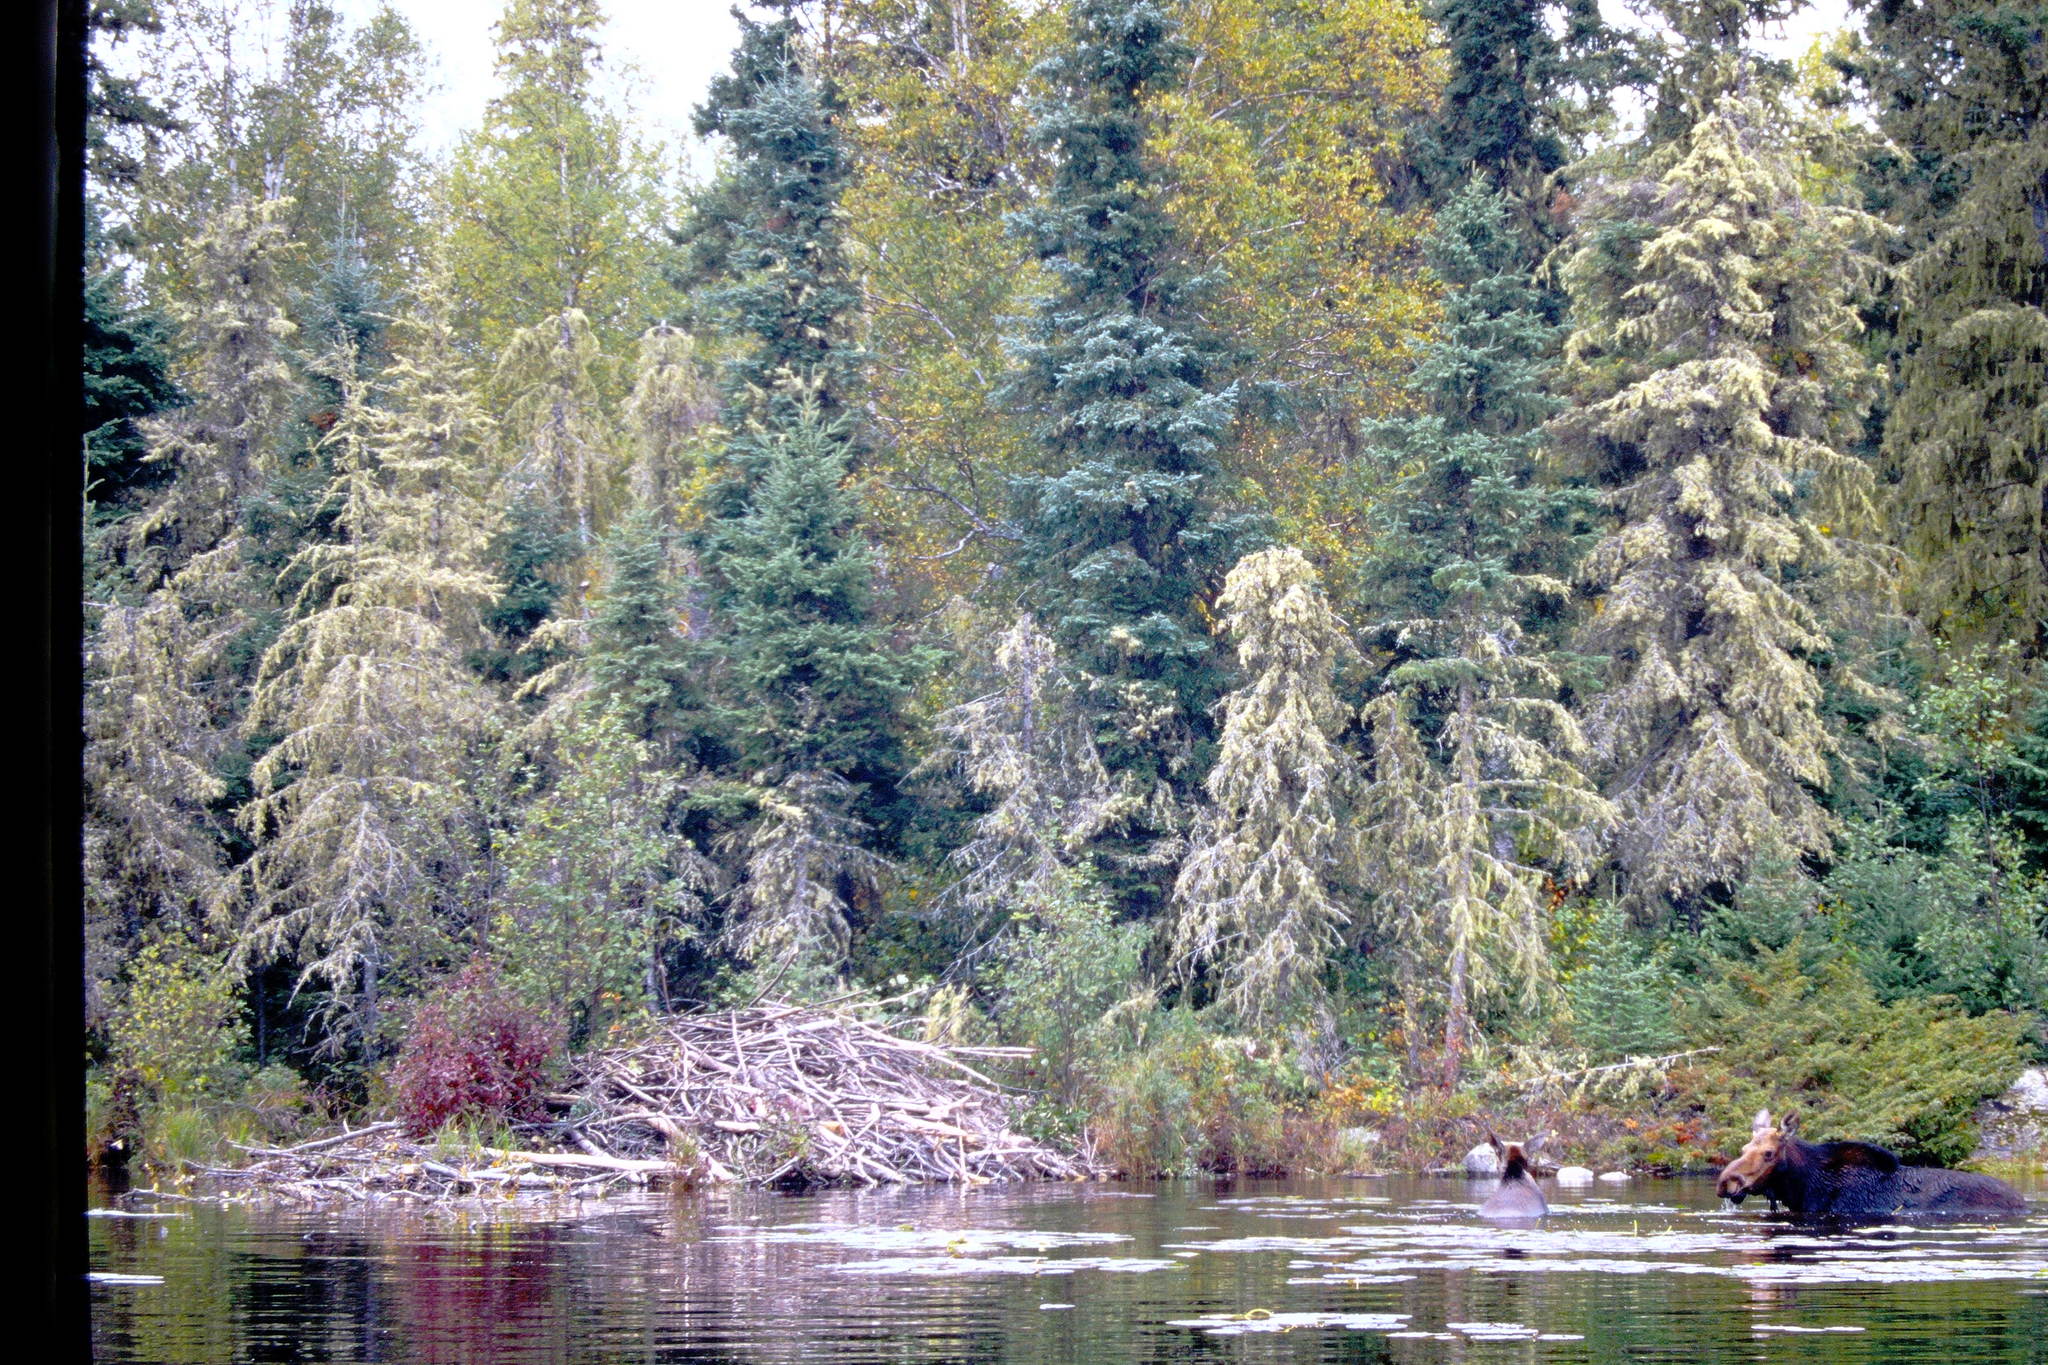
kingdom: Animalia
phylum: Chordata
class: Mammalia
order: Artiodactyla
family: Cervidae
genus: Alces
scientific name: Alces alces
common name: Moose
